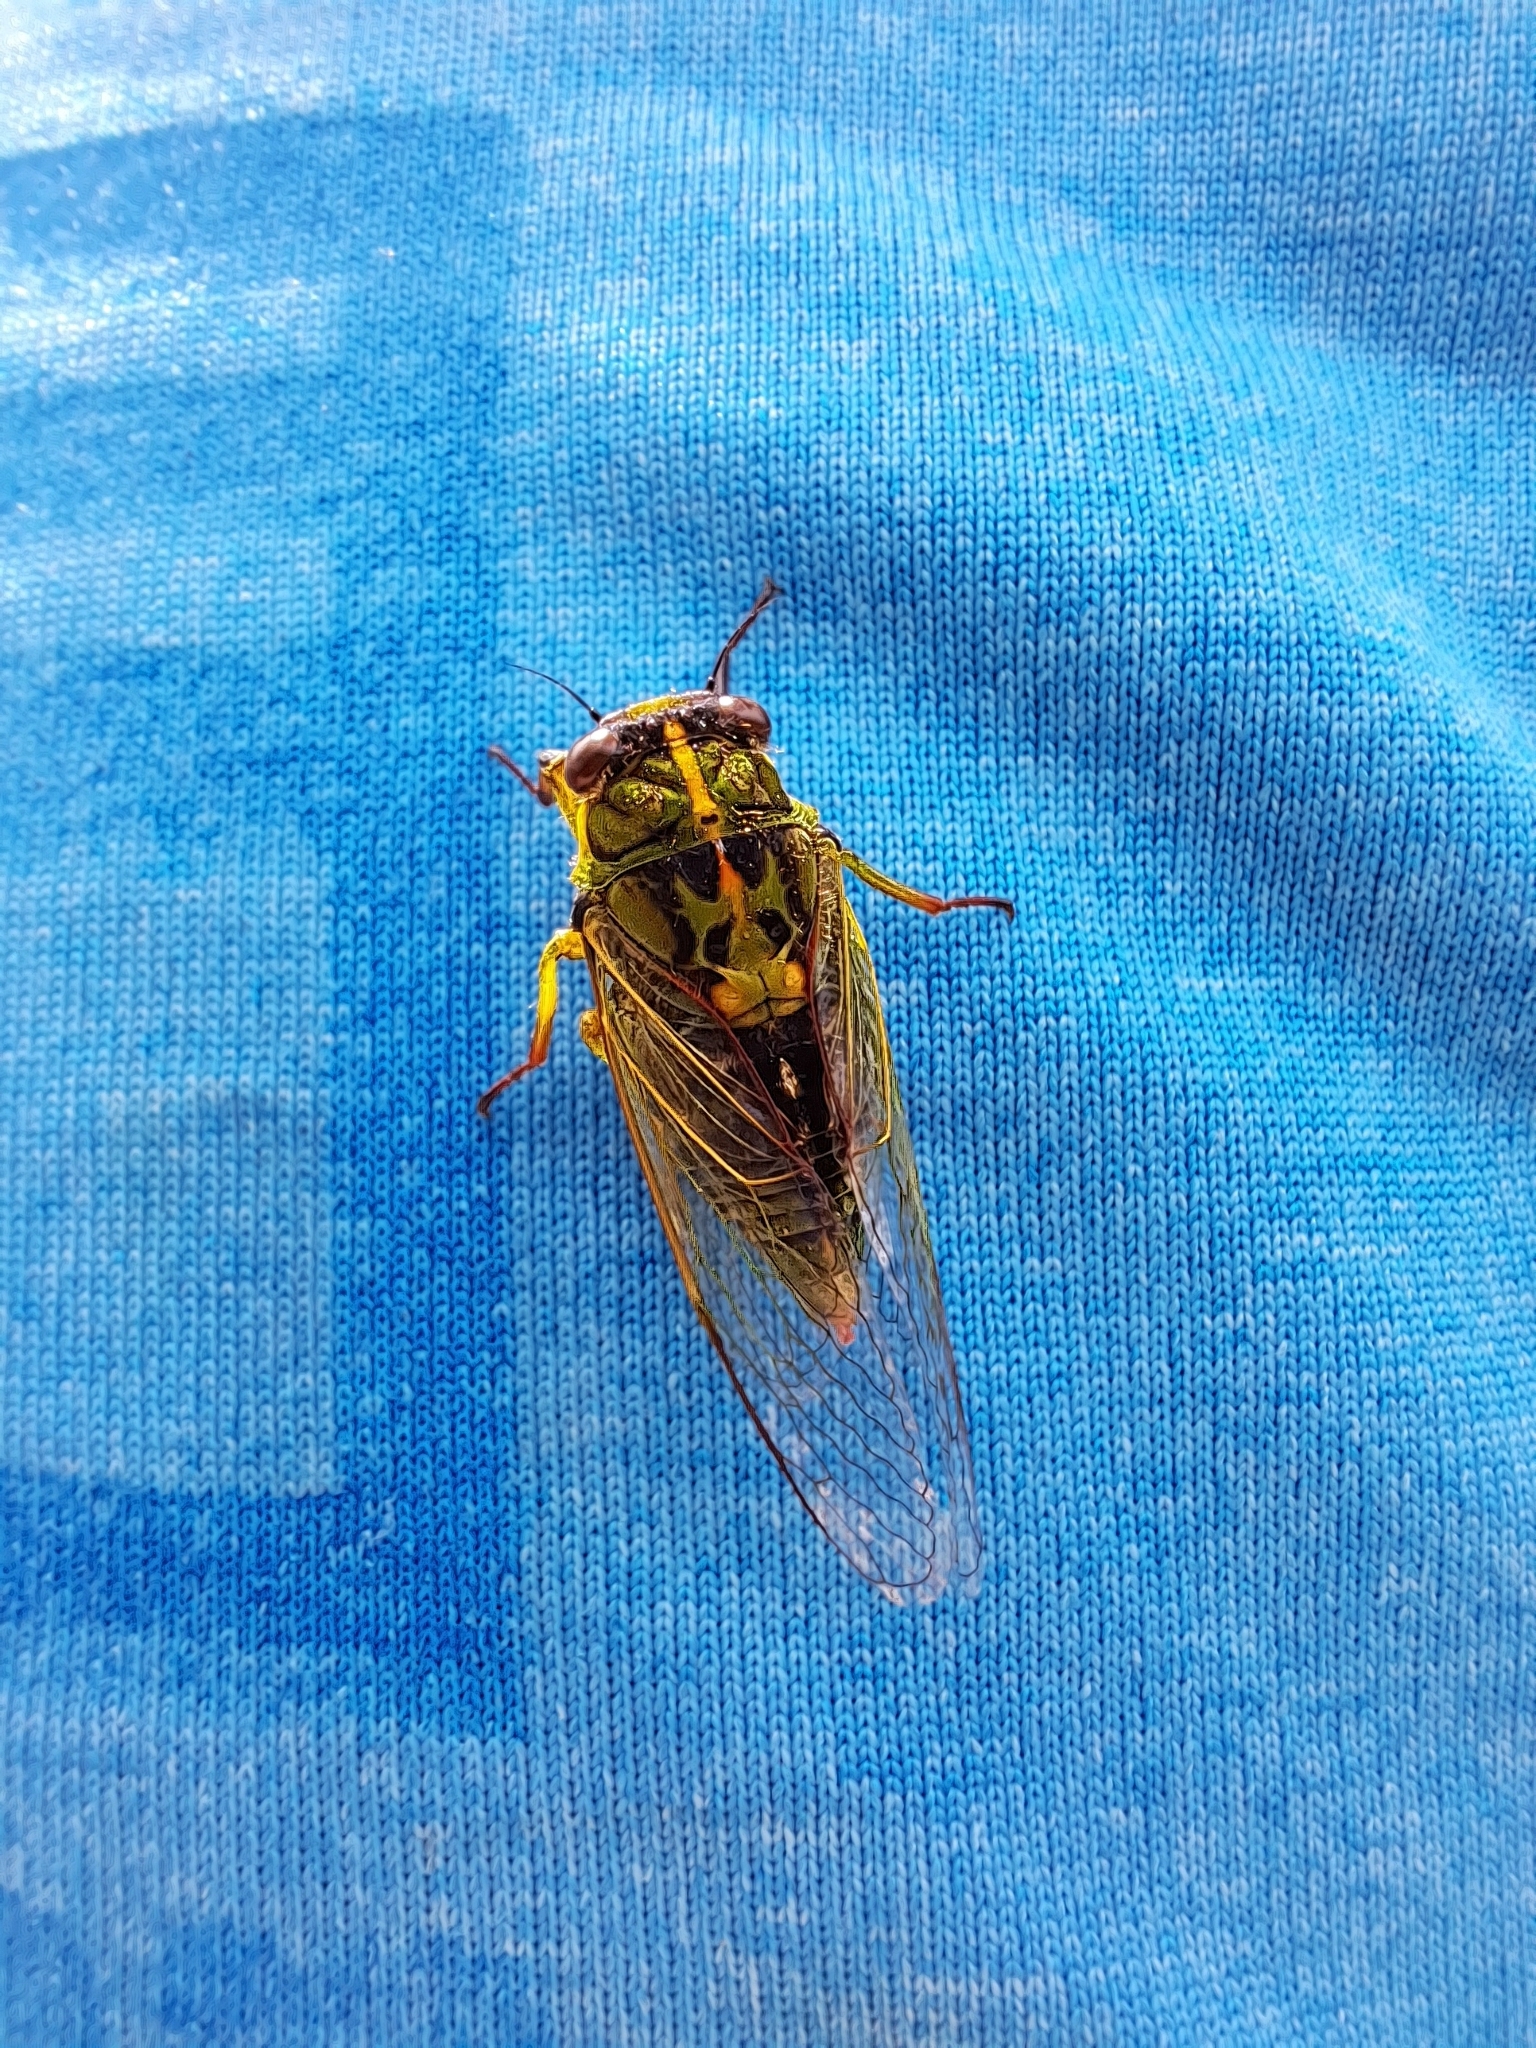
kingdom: Animalia
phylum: Arthropoda
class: Insecta
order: Hemiptera
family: Cicadidae
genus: Kikihia
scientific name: Kikihia cutora
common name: Northern snoring cicada
